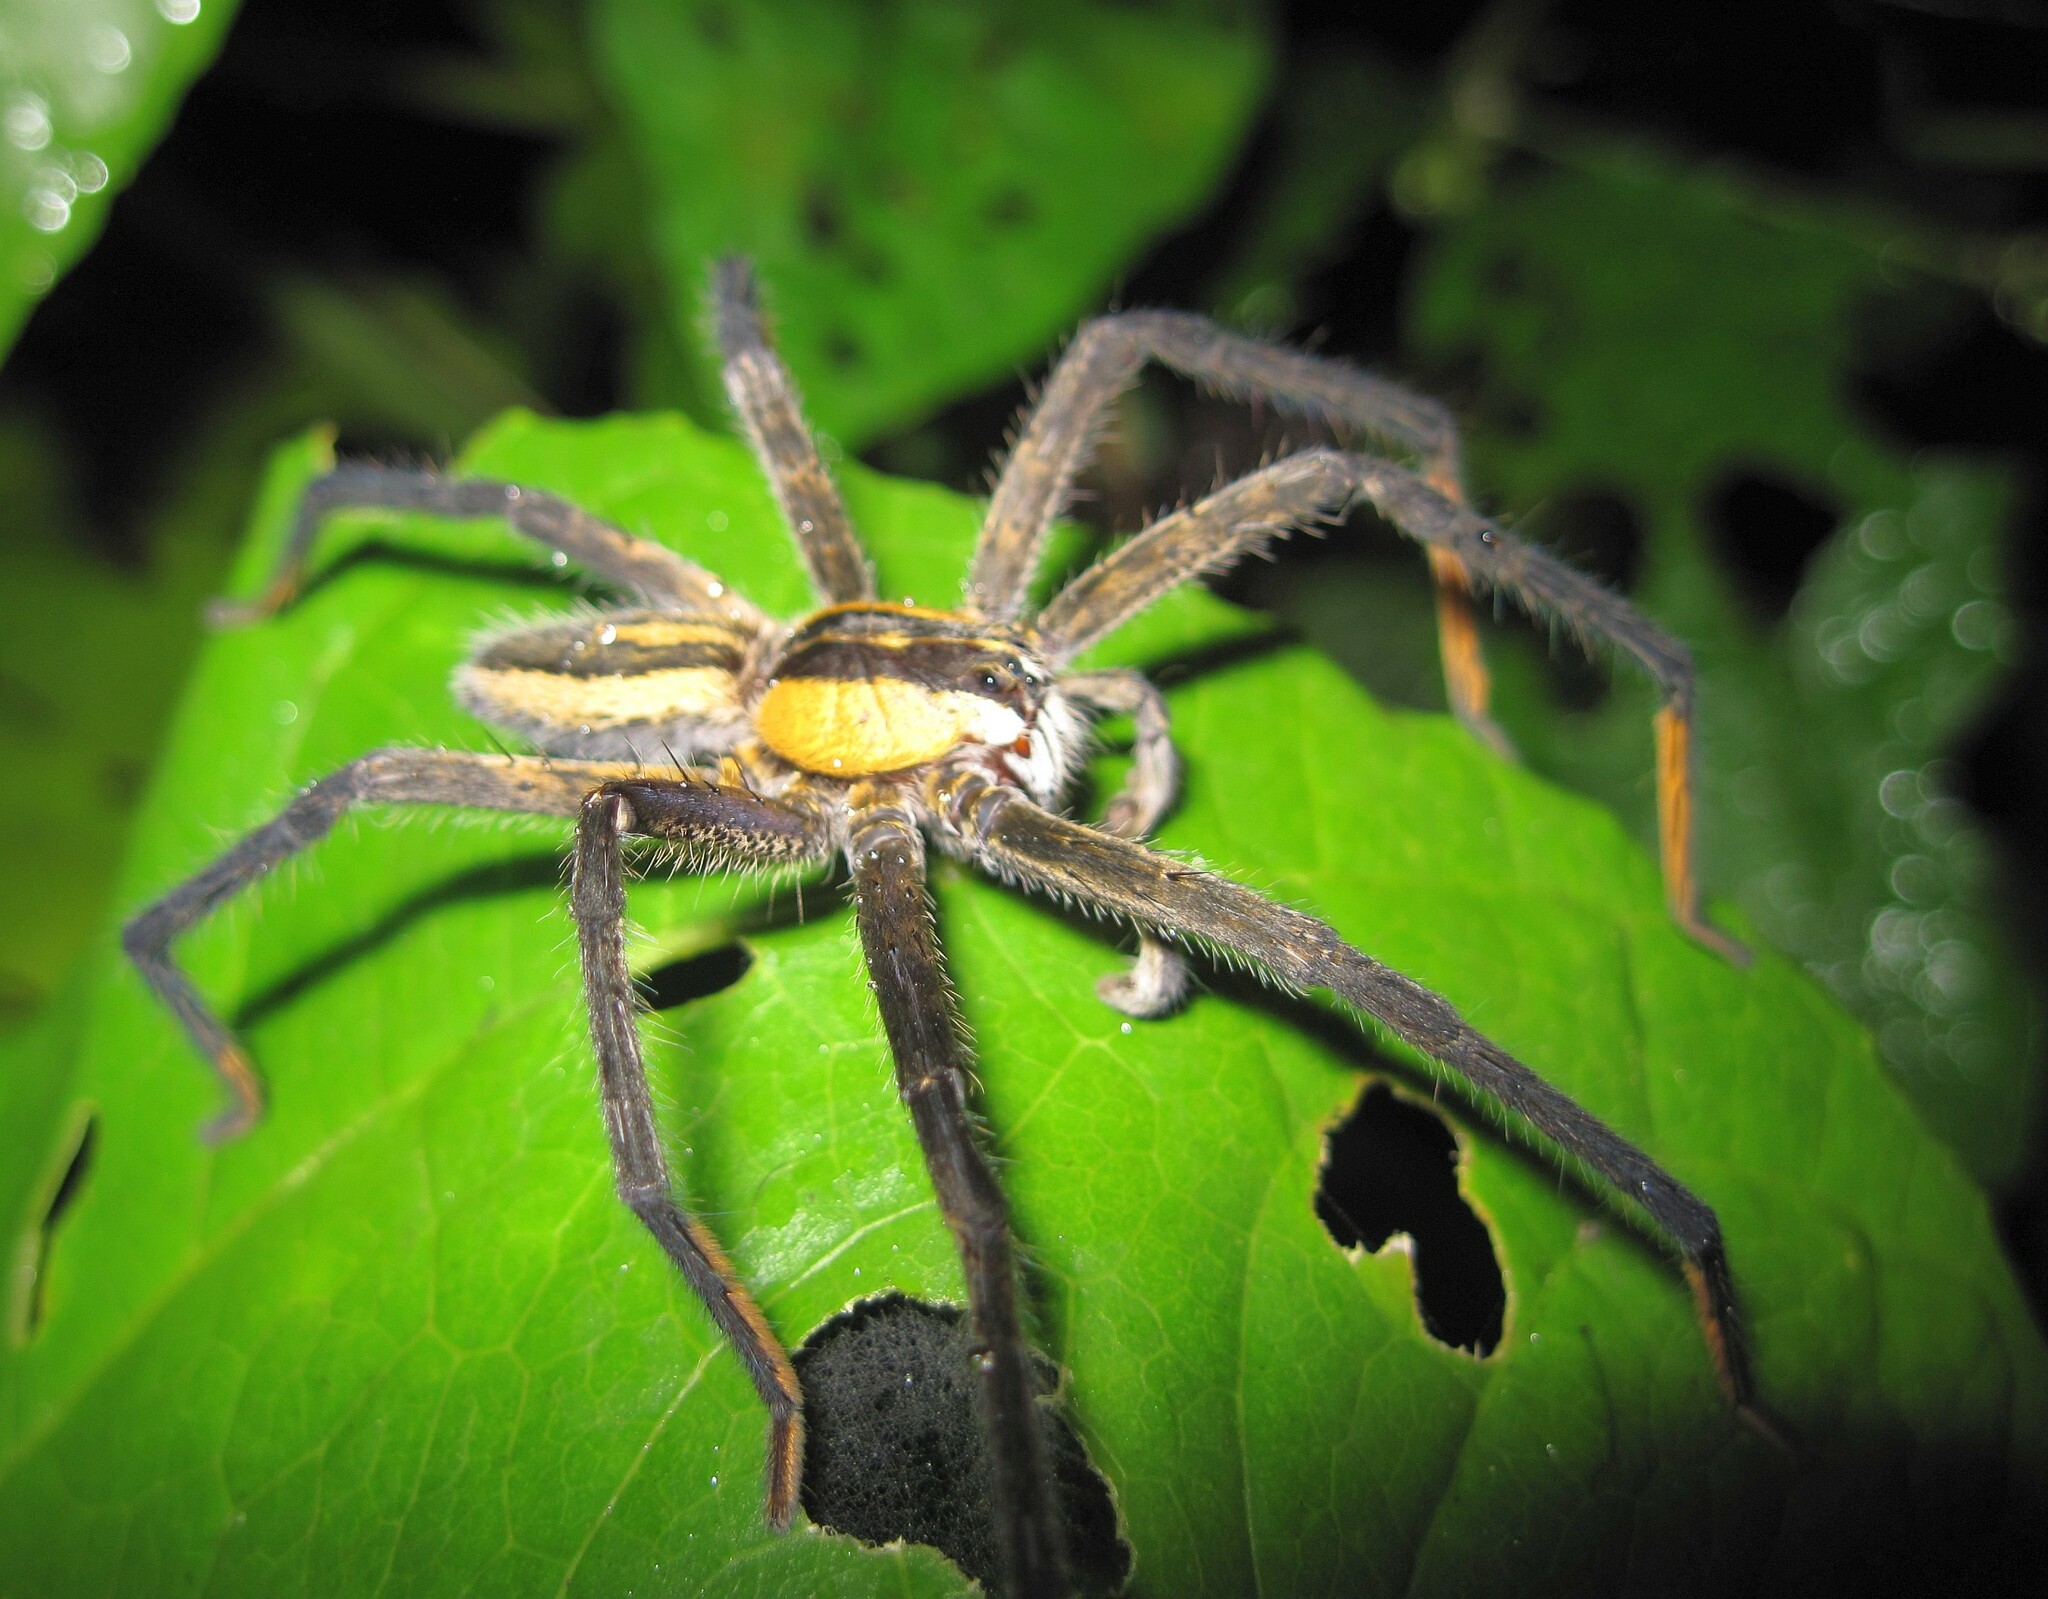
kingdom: Animalia
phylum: Arthropoda
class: Arachnida
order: Araneae
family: Trechaleidae
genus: Cupiennius
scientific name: Cupiennius getazi
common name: Wandering spiders
